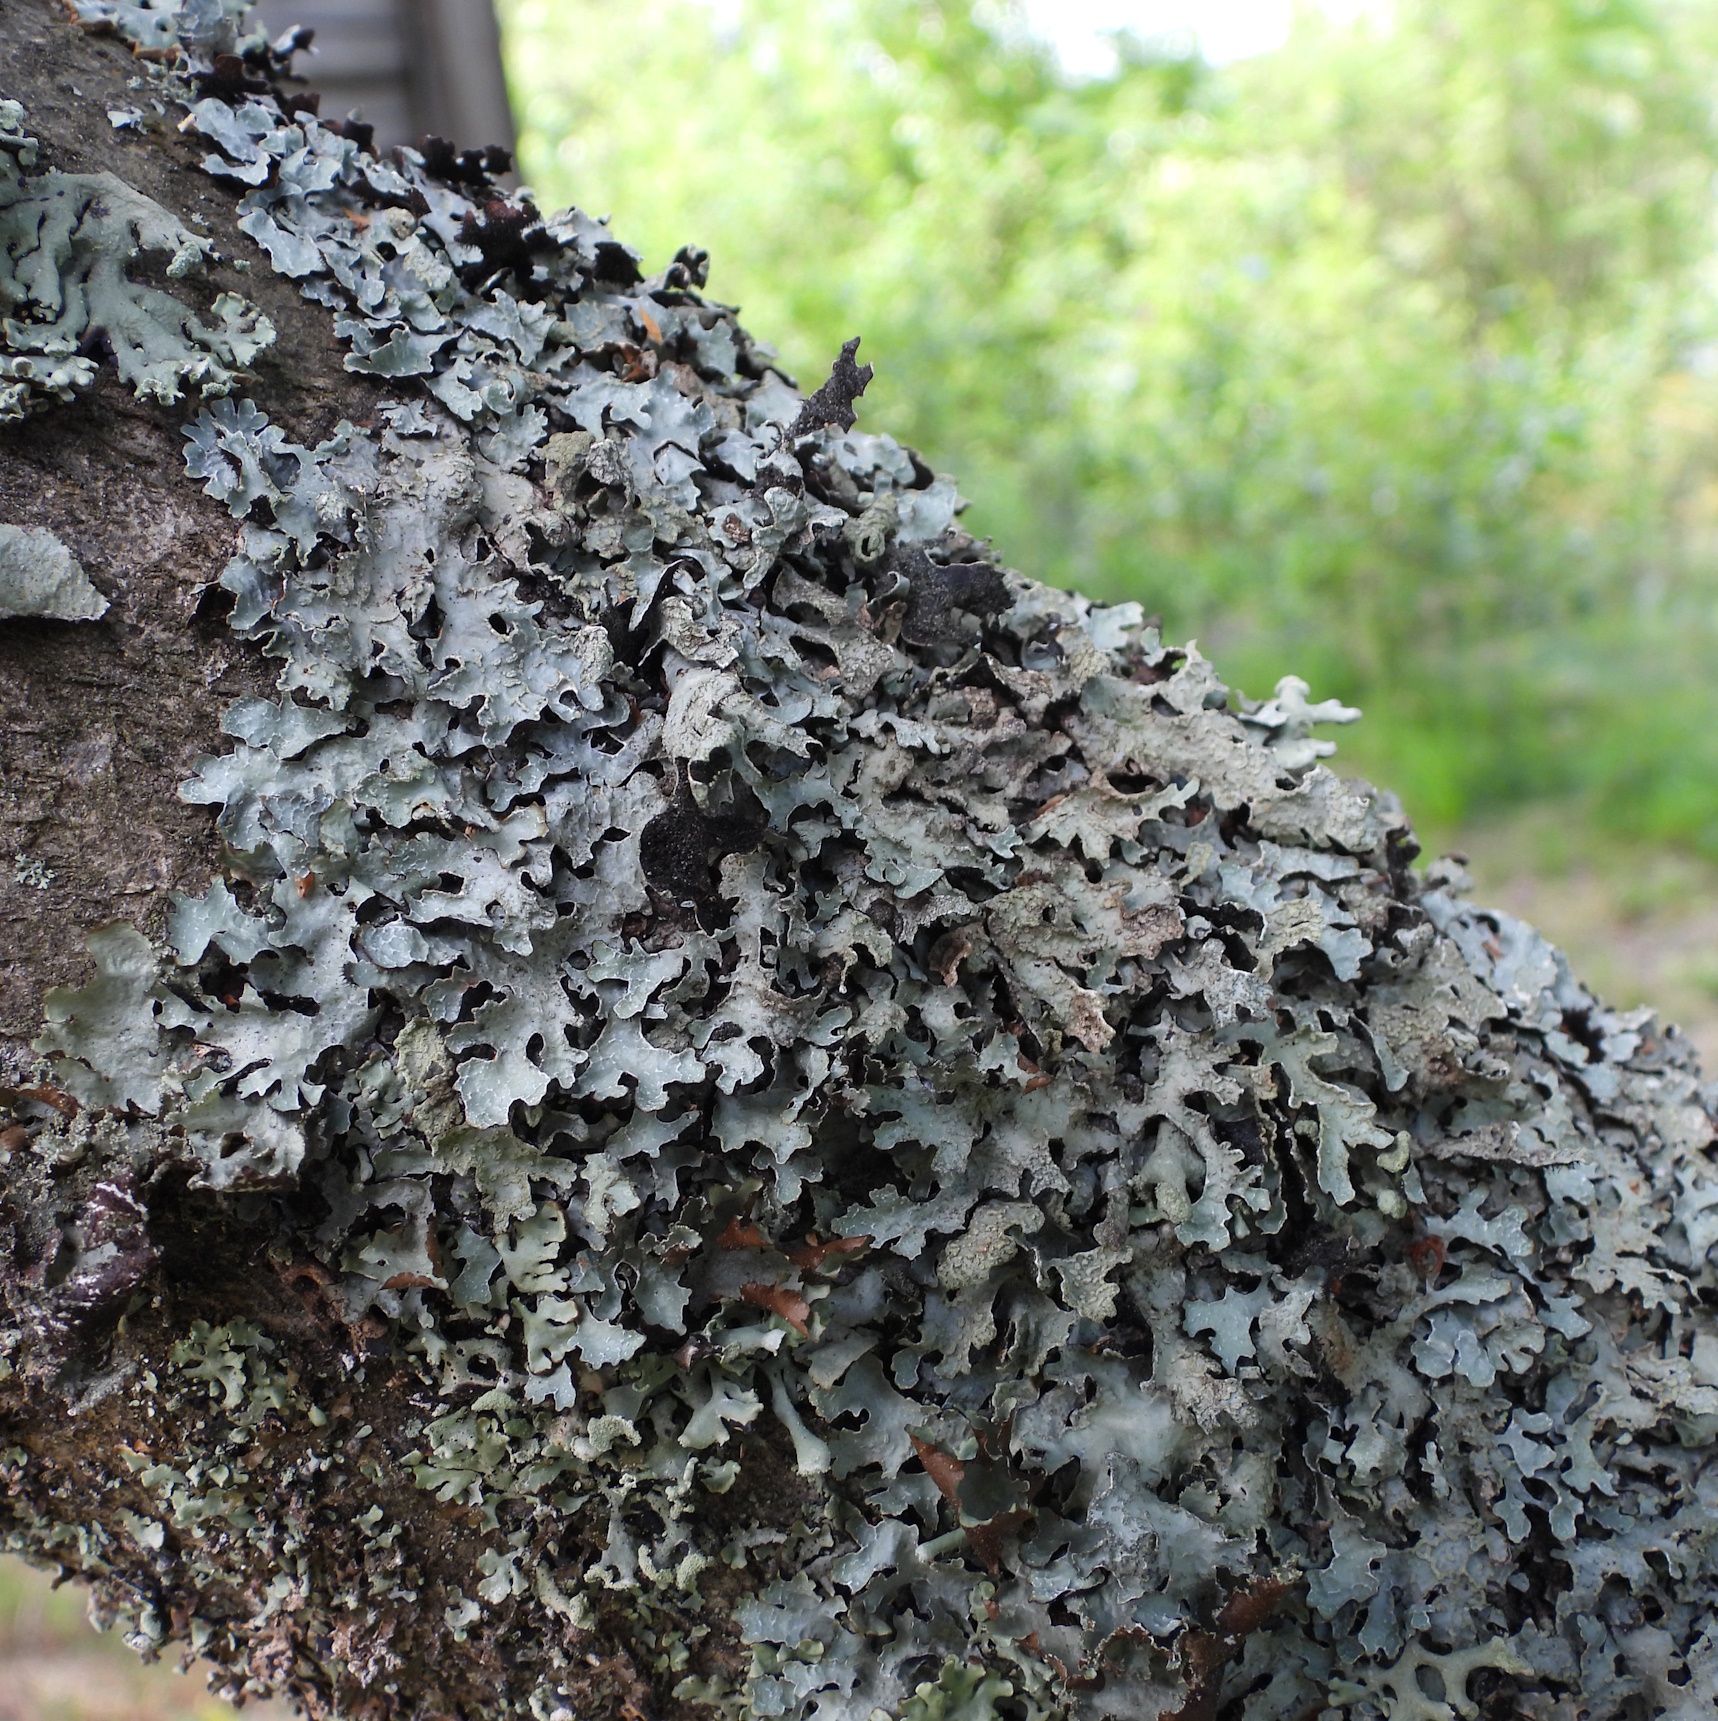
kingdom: Fungi
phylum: Ascomycota
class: Lecanoromycetes
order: Lecanorales
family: Parmeliaceae
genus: Parmelia
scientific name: Parmelia sulcata
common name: Netted shield lichen
